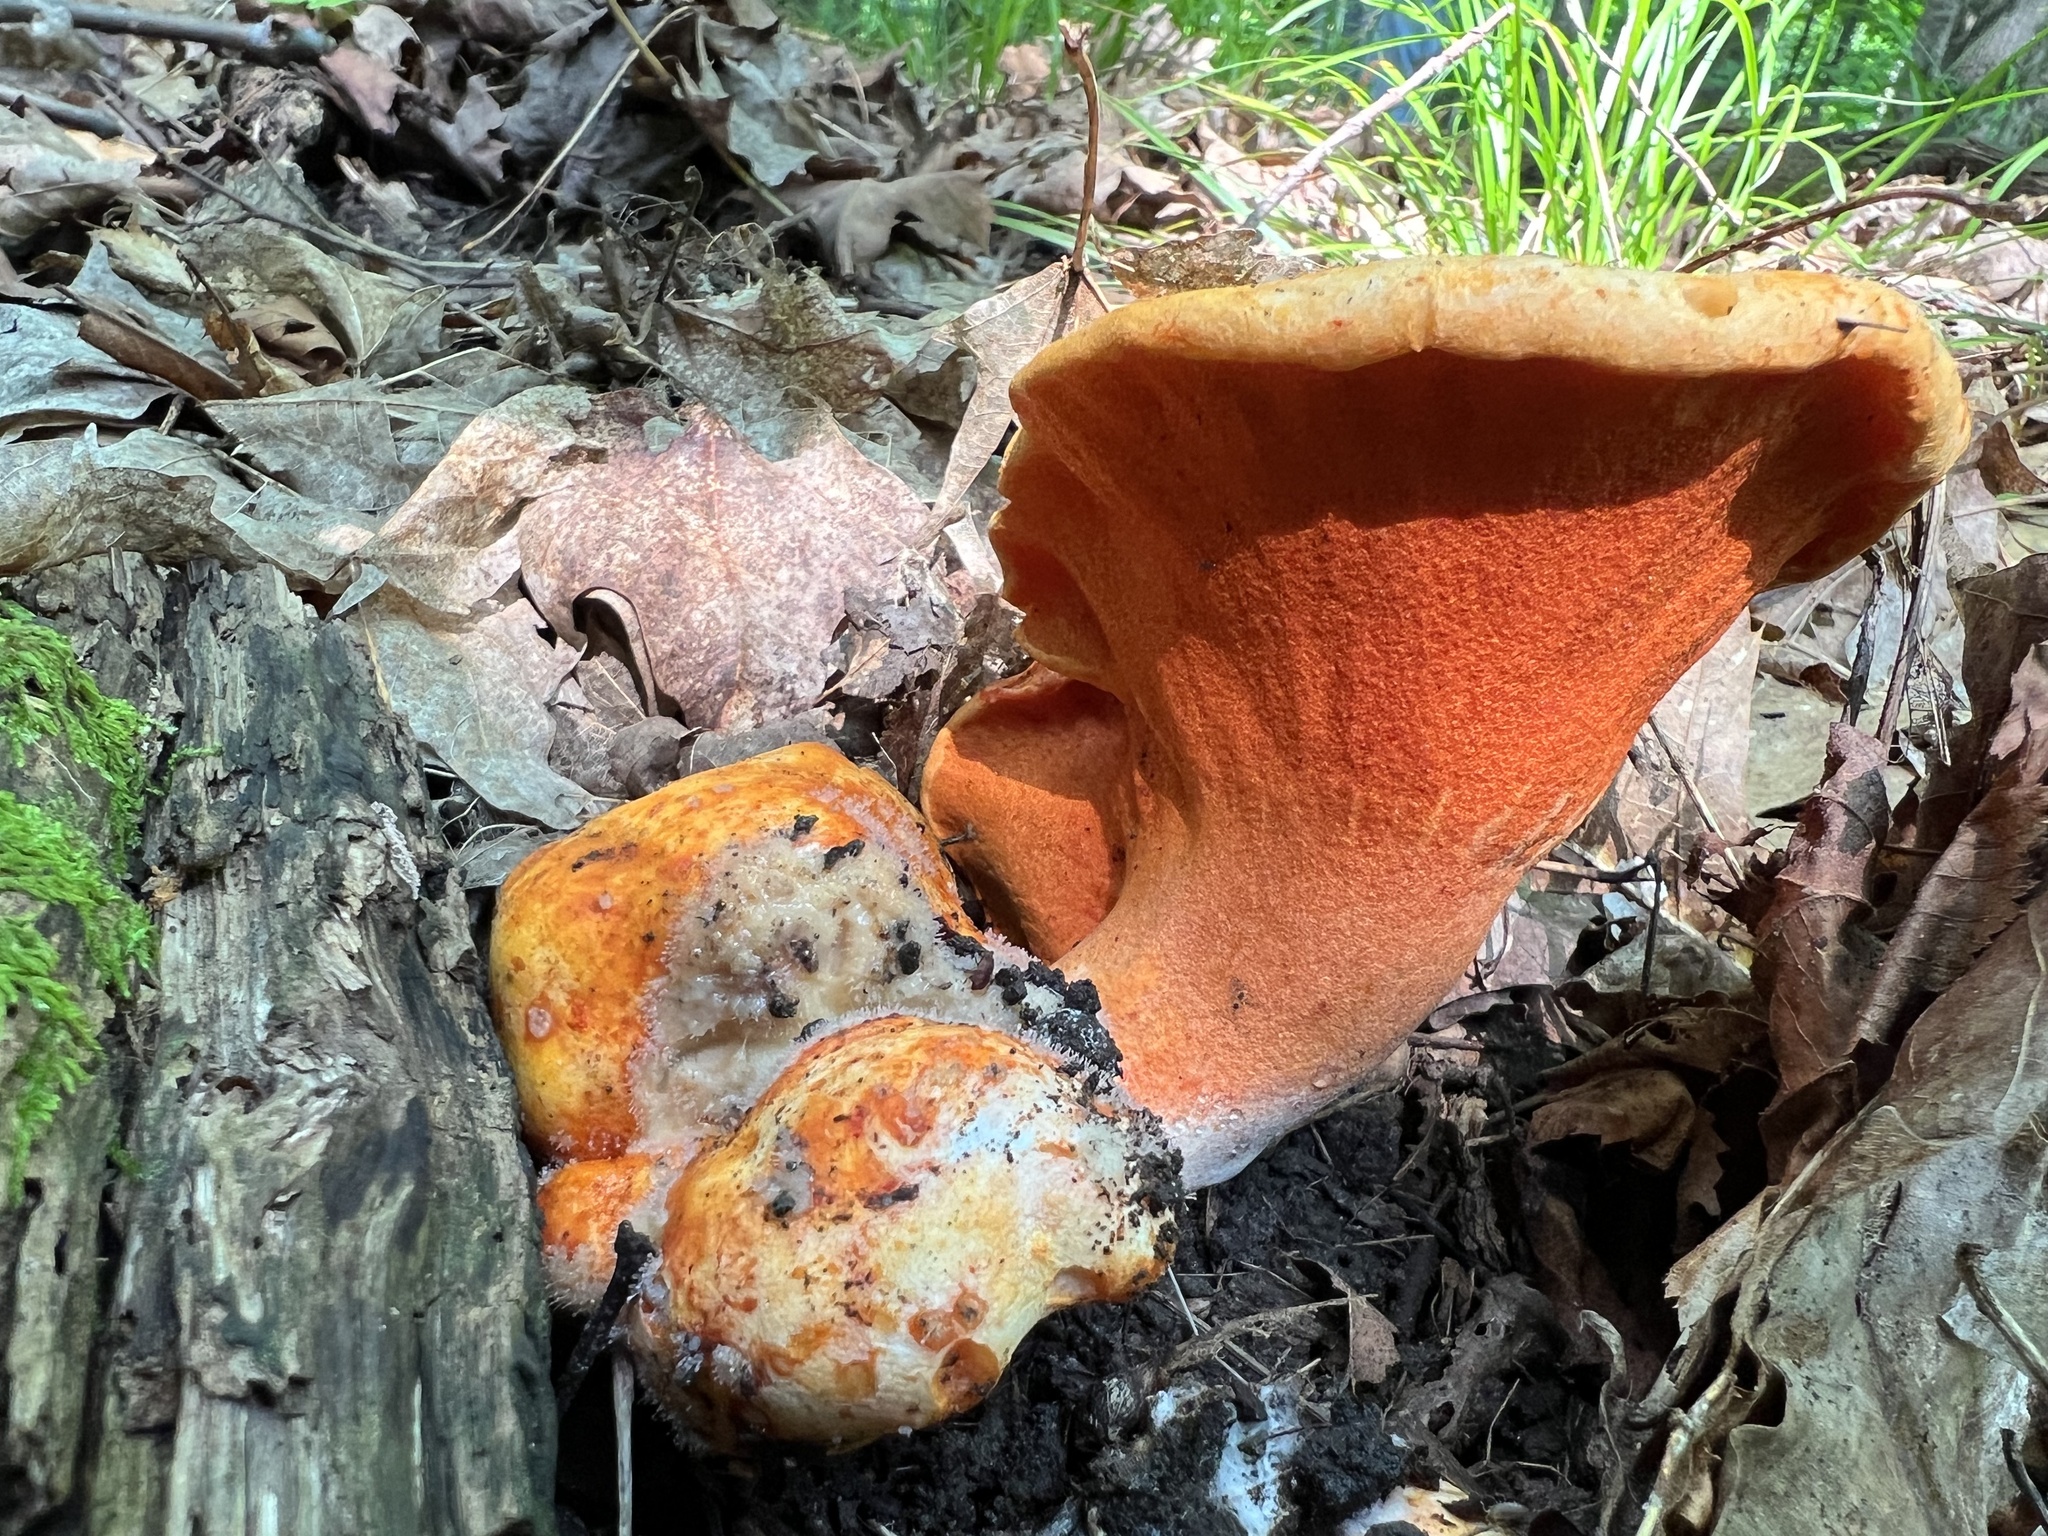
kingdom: Fungi
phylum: Ascomycota
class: Sordariomycetes
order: Hypocreales
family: Hypocreaceae
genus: Hypomyces
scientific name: Hypomyces lactifluorum
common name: Lobster mushroom
